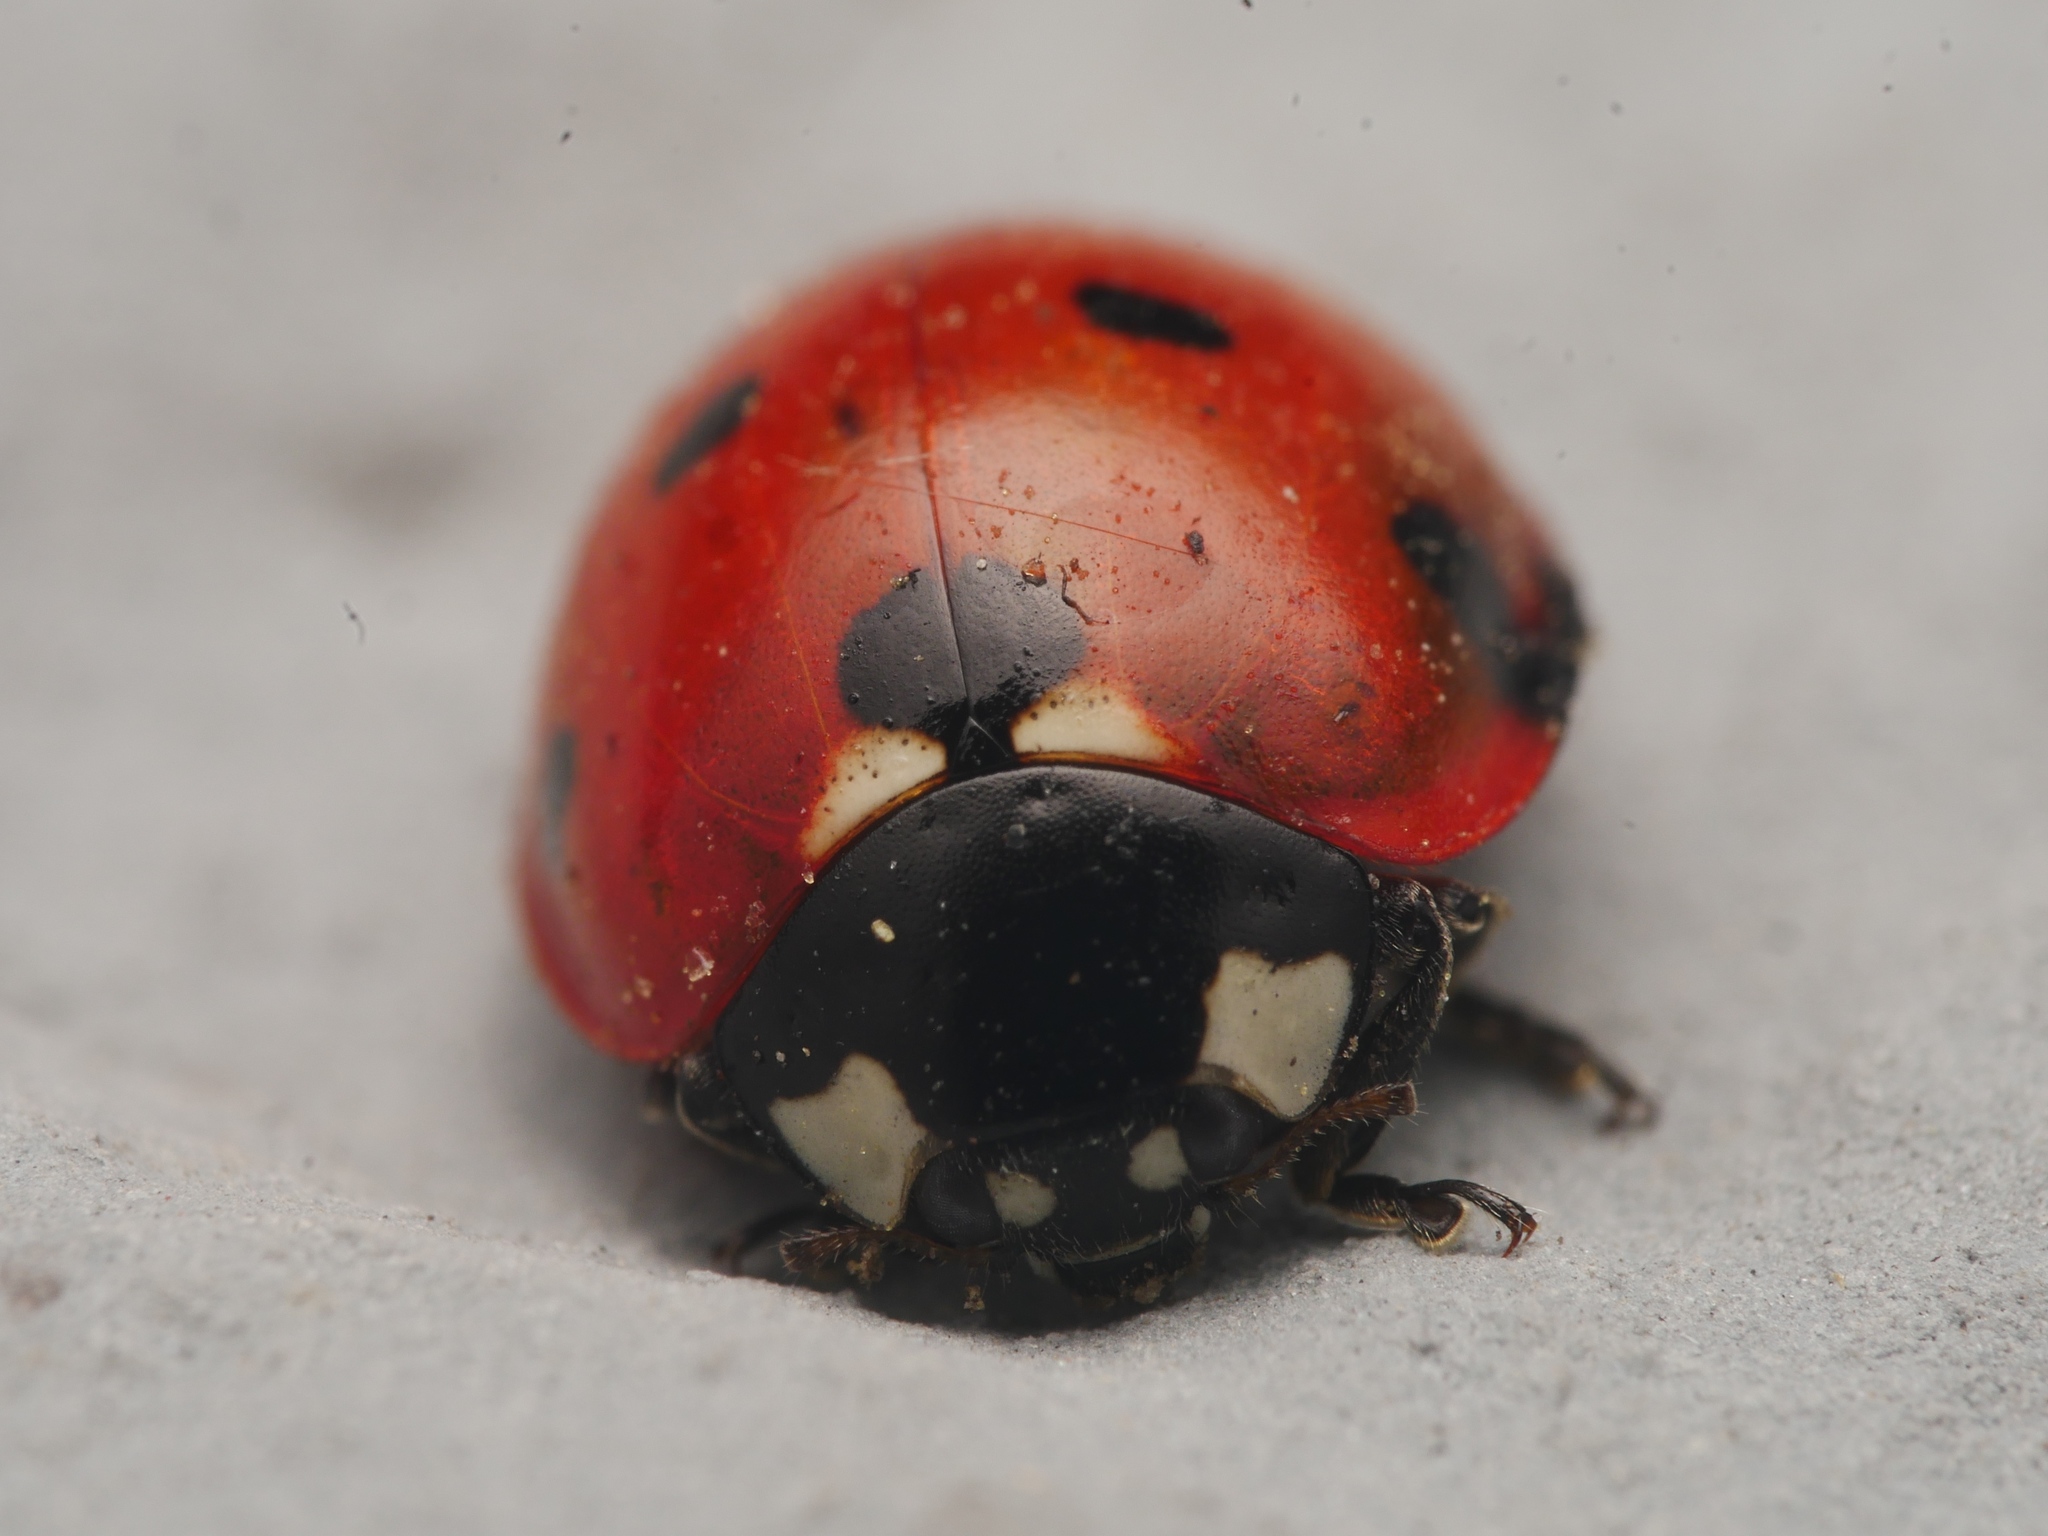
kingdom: Animalia
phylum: Arthropoda
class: Insecta
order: Coleoptera
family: Coccinellidae
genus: Coccinella
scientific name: Coccinella septempunctata
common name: Sevenspotted lady beetle
